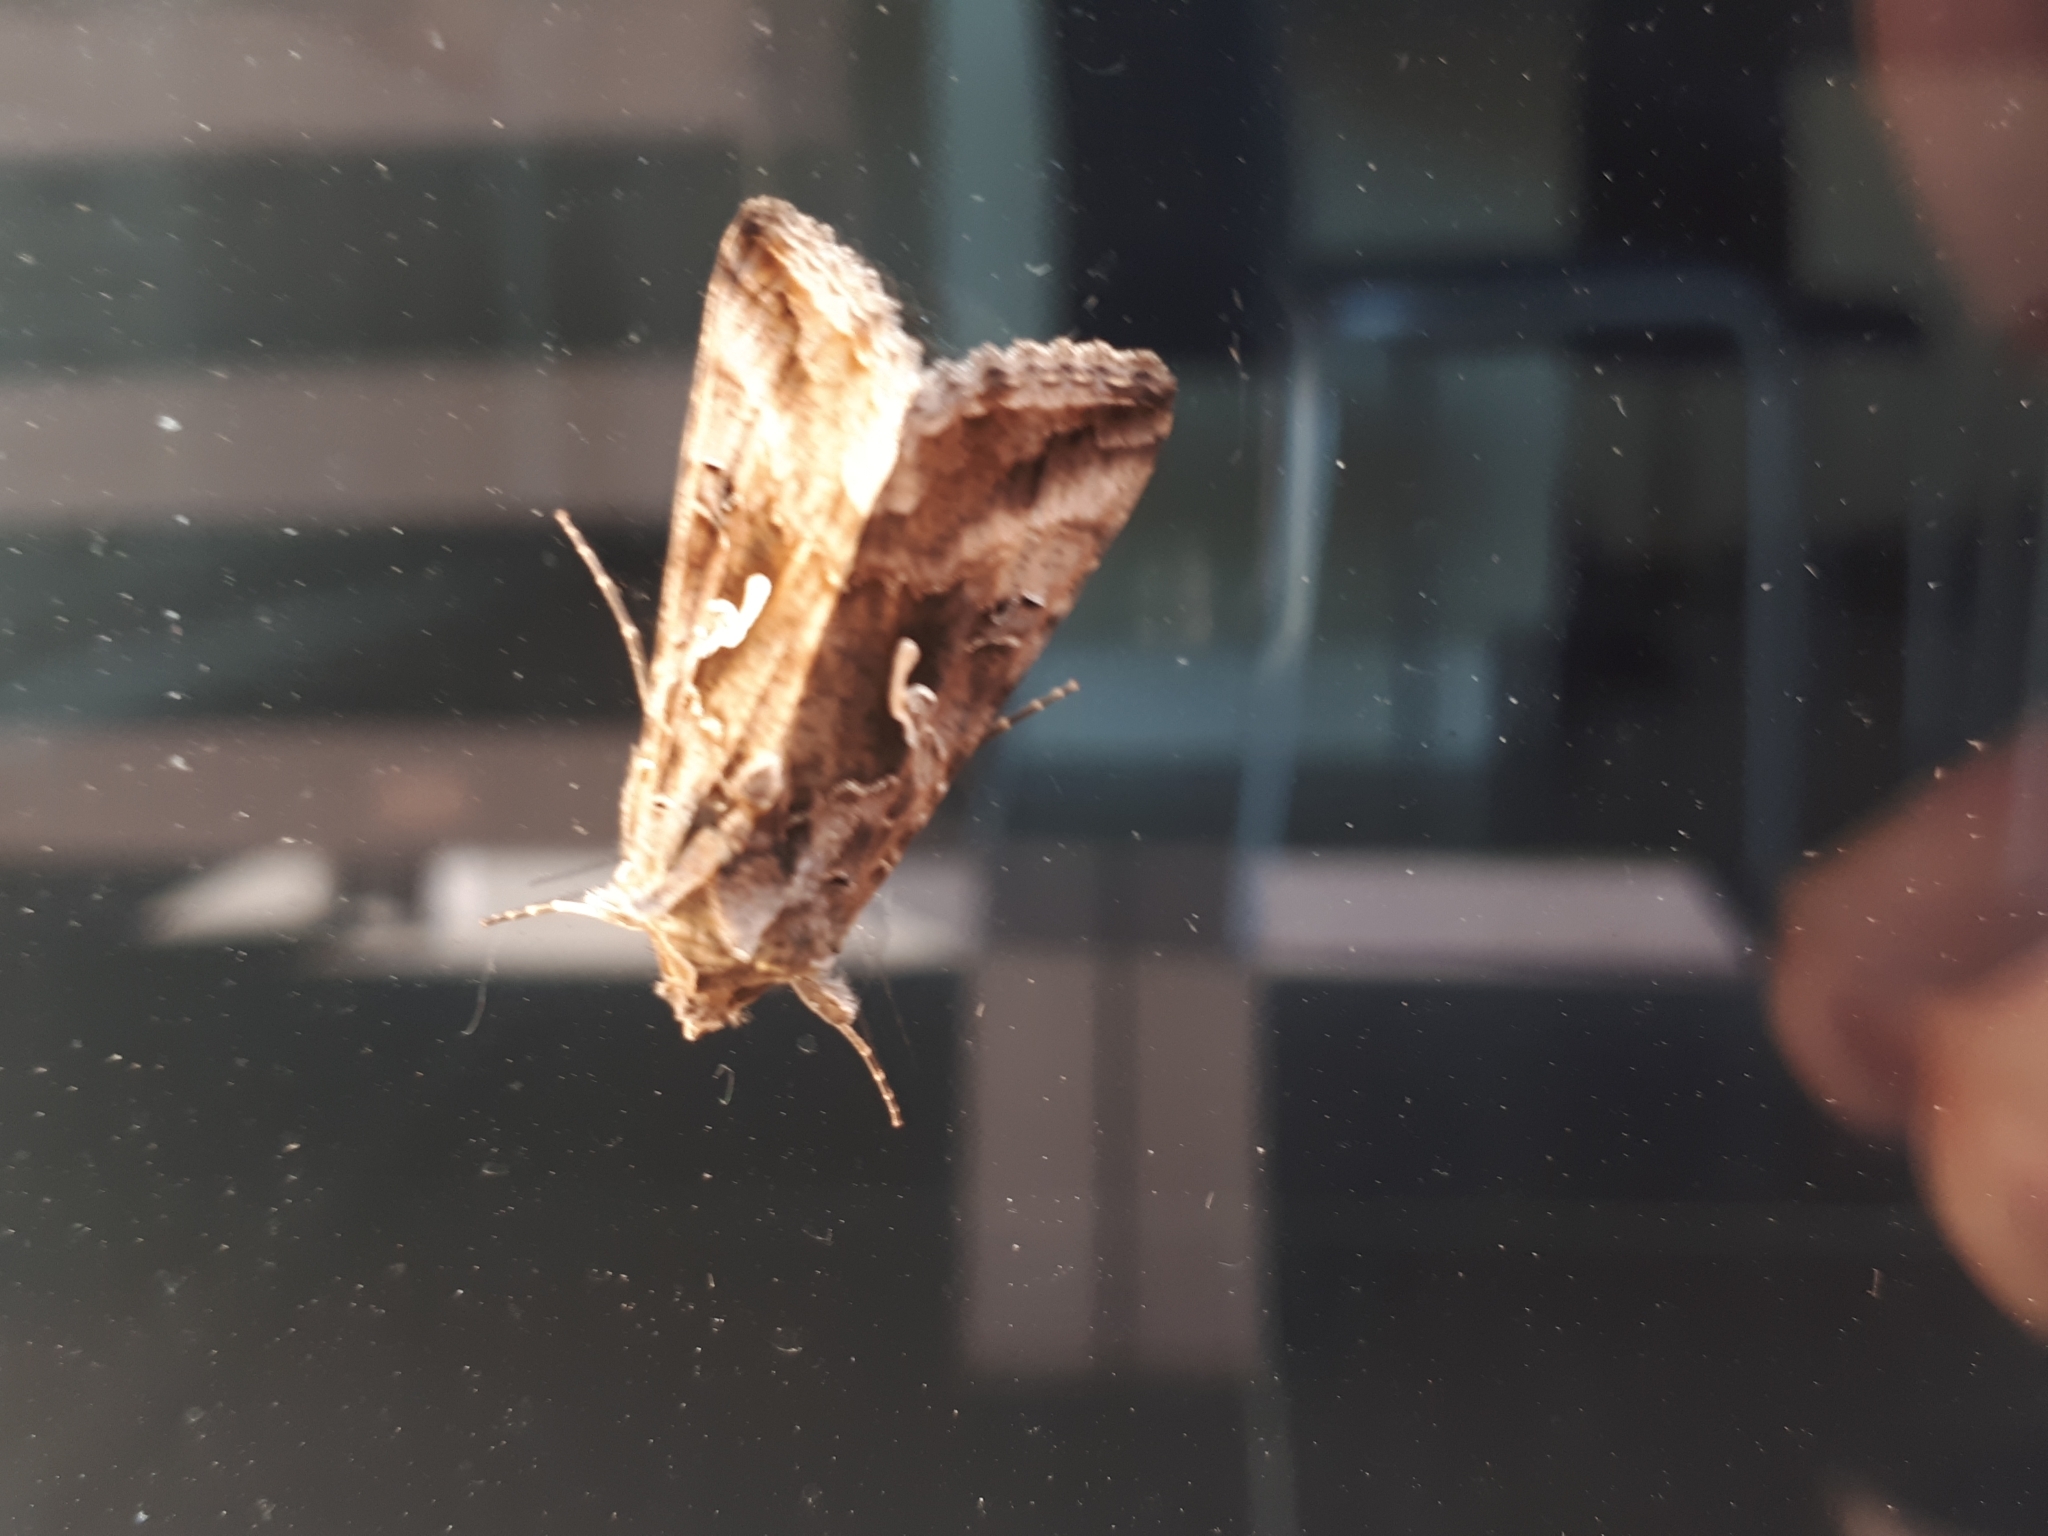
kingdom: Animalia
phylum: Arthropoda
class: Insecta
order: Lepidoptera
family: Noctuidae
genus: Autographa
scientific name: Autographa gamma
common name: Silver y
